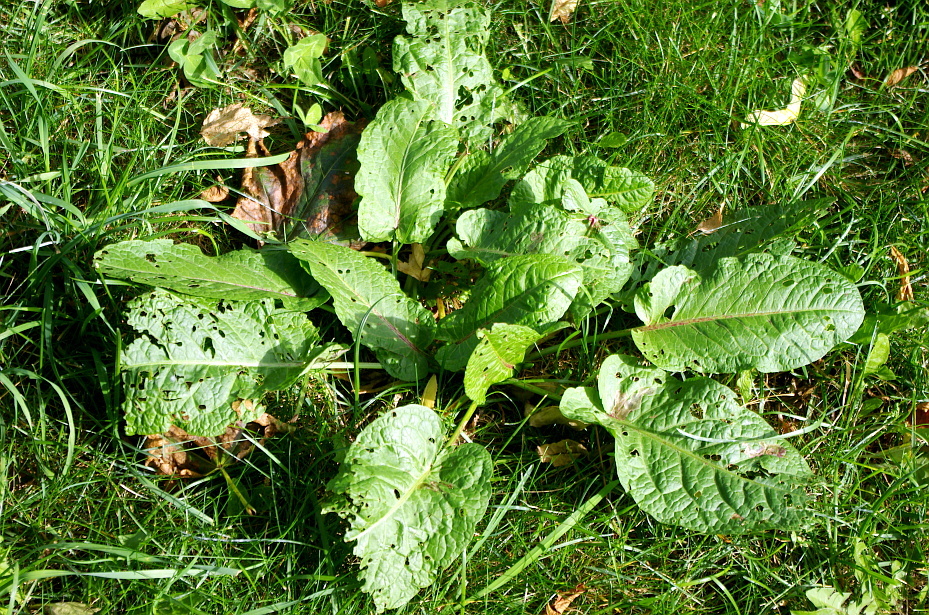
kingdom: Plantae
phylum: Tracheophyta
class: Magnoliopsida
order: Caryophyllales
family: Polygonaceae
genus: Rumex
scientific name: Rumex obtusifolius
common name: Bitter dock
